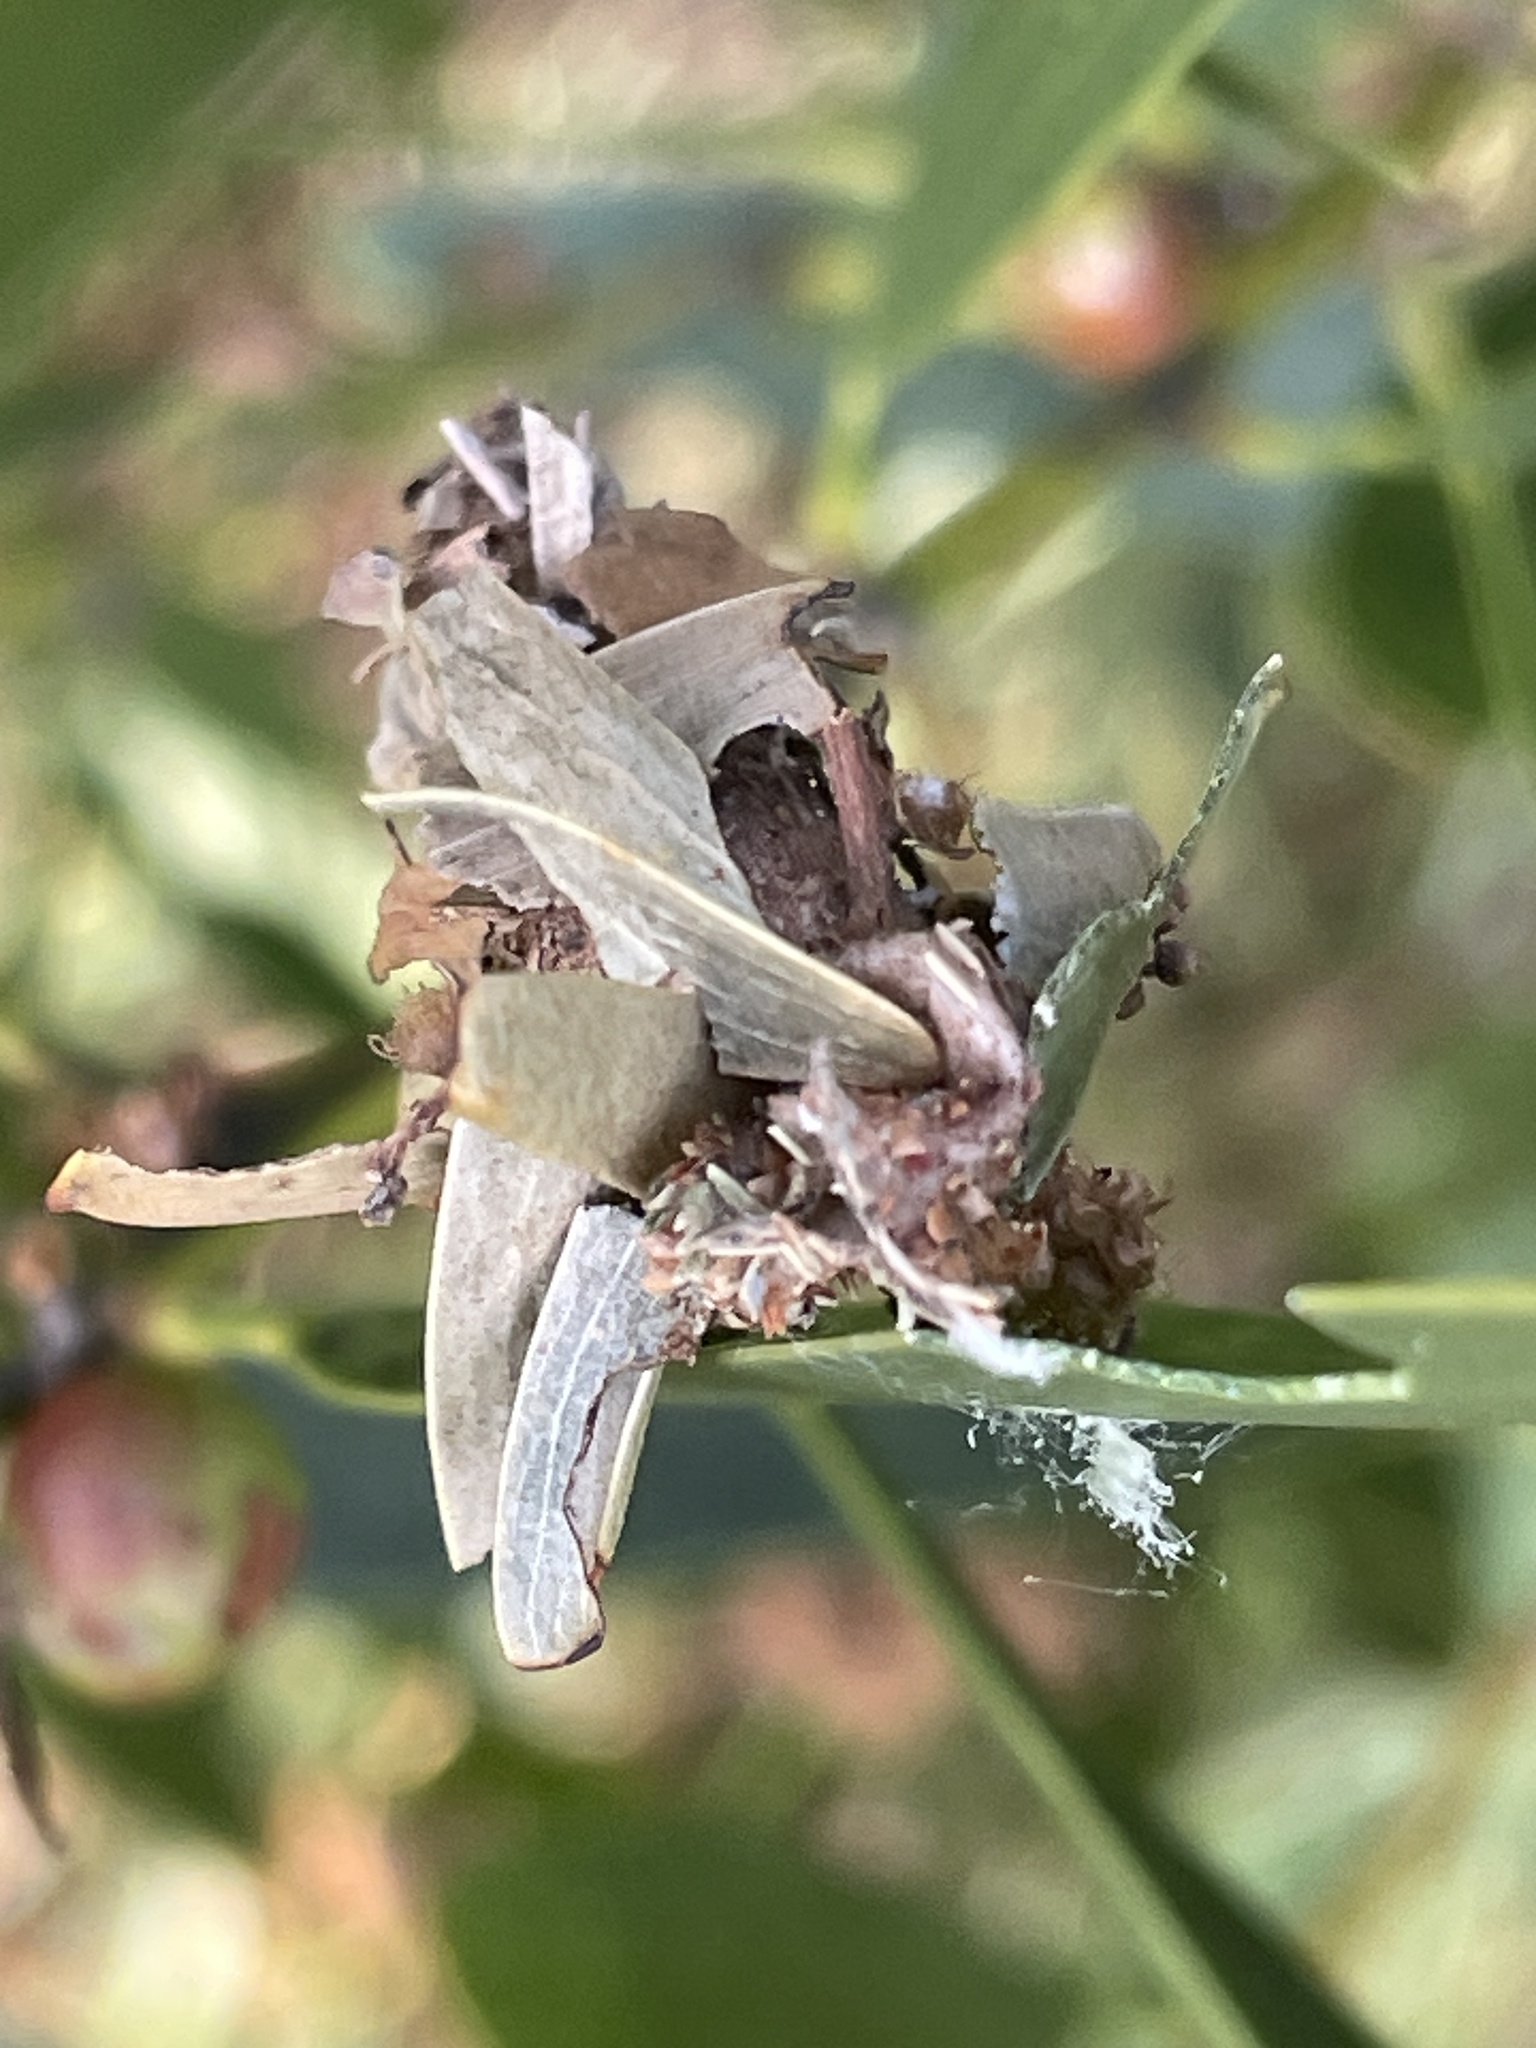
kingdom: Animalia
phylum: Arthropoda
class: Insecta
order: Lepidoptera
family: Psychidae
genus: Hyalarcta
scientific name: Hyalarcta huebneri
